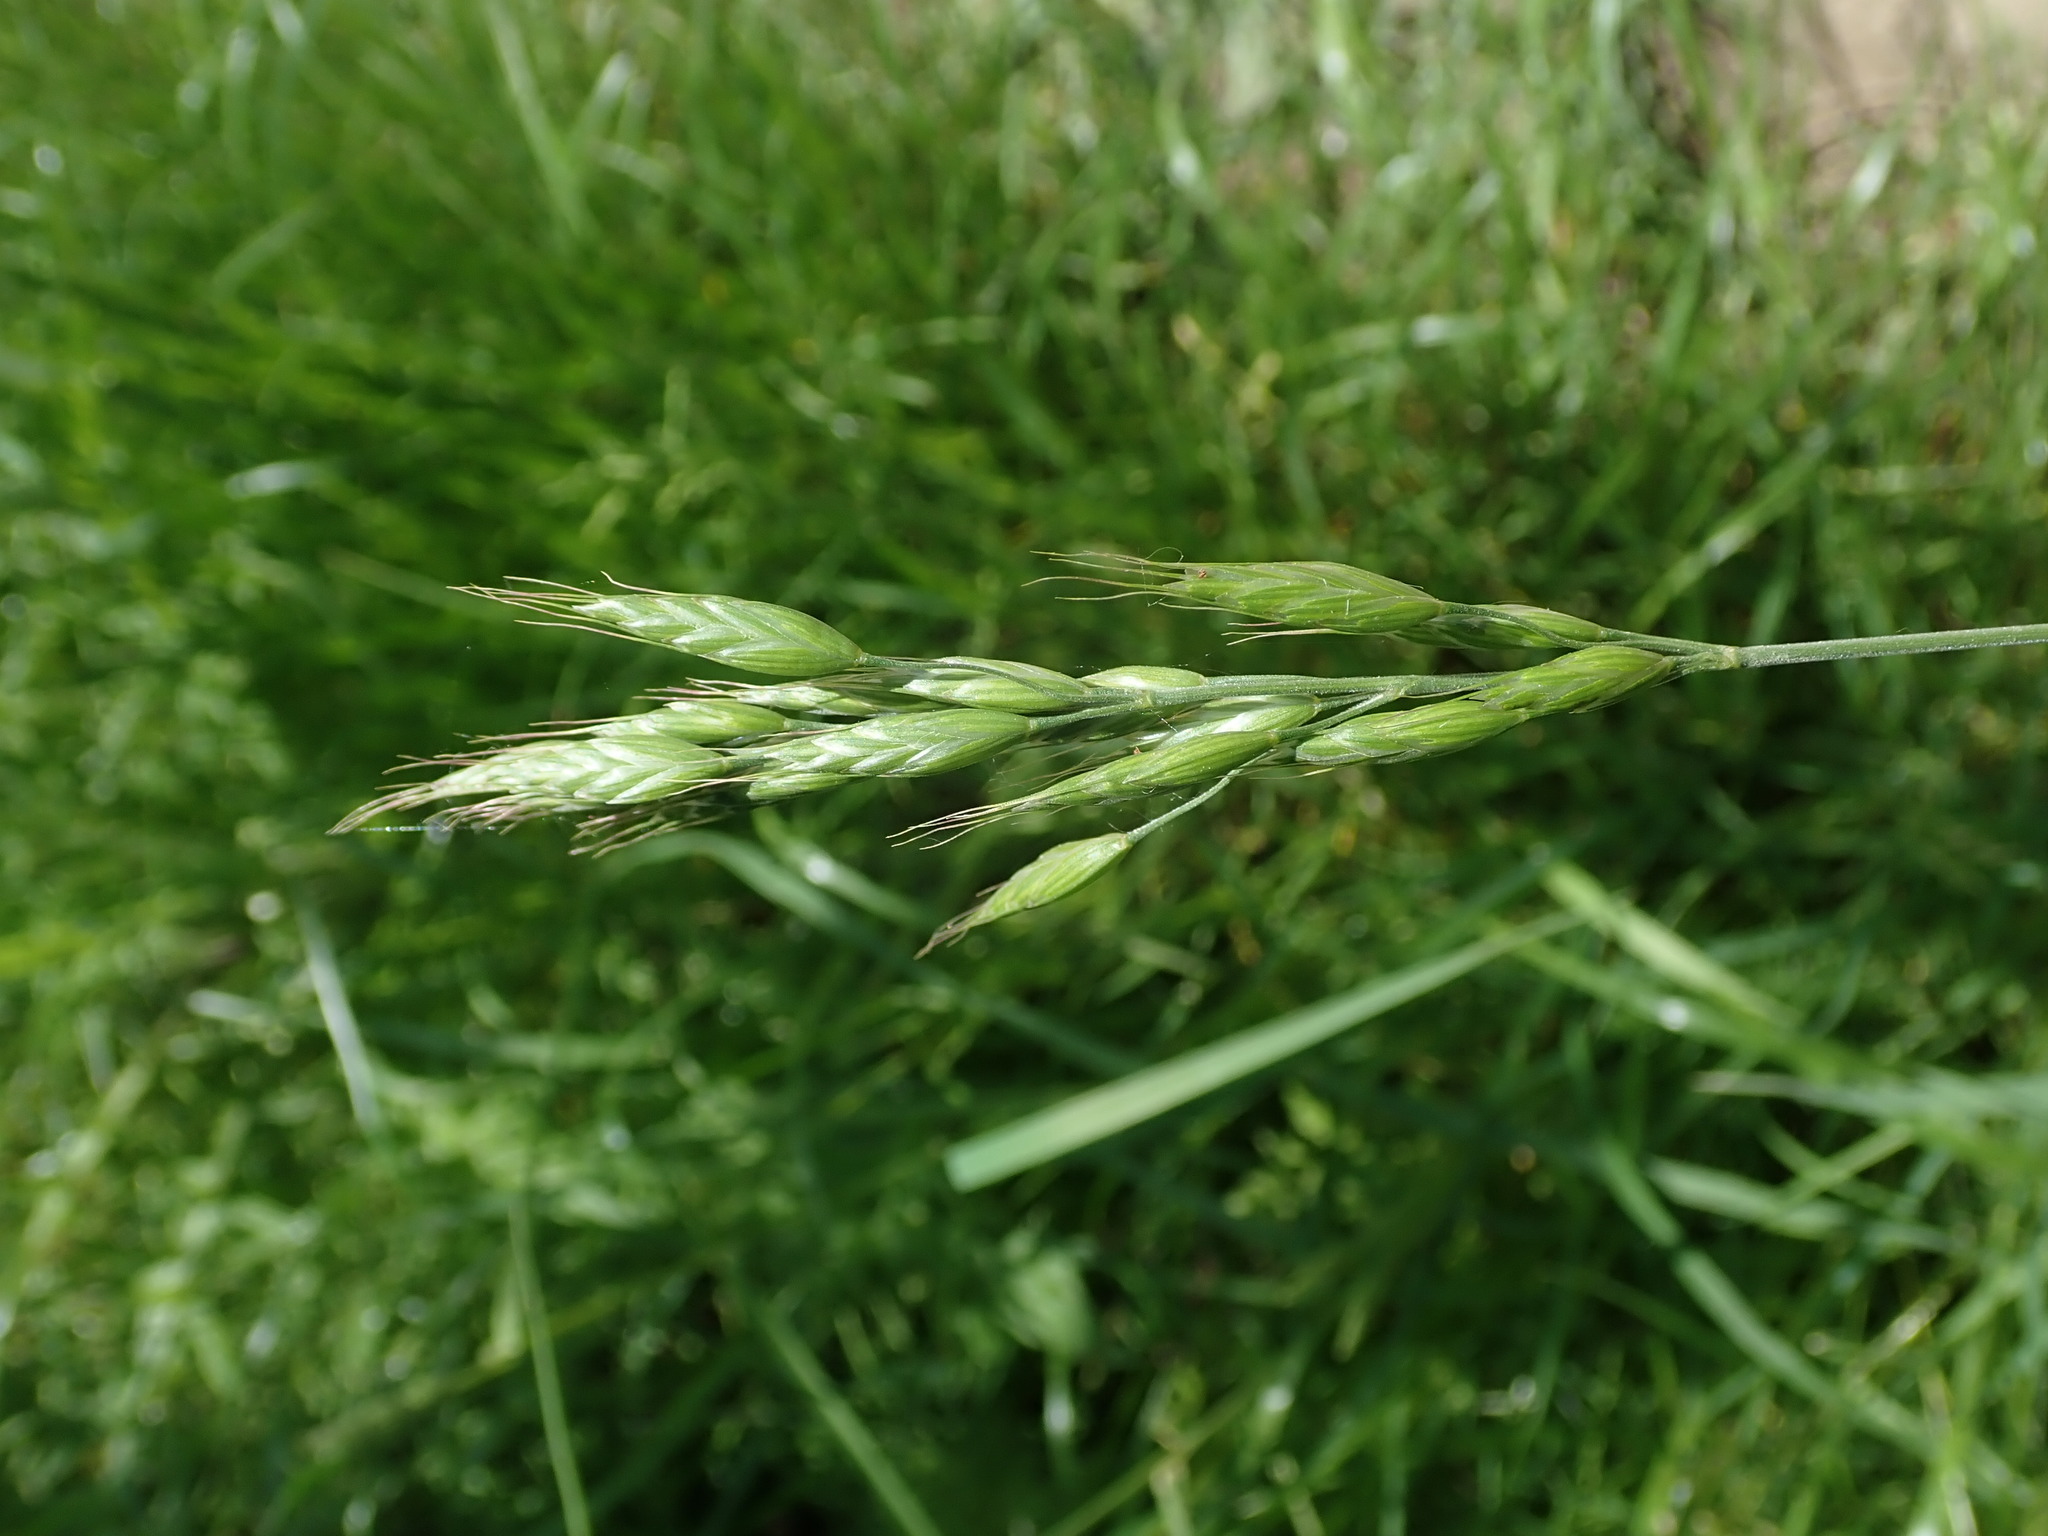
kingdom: Plantae
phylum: Tracheophyta
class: Liliopsida
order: Poales
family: Poaceae
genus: Bromus
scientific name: Bromus hordeaceus
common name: Soft brome
